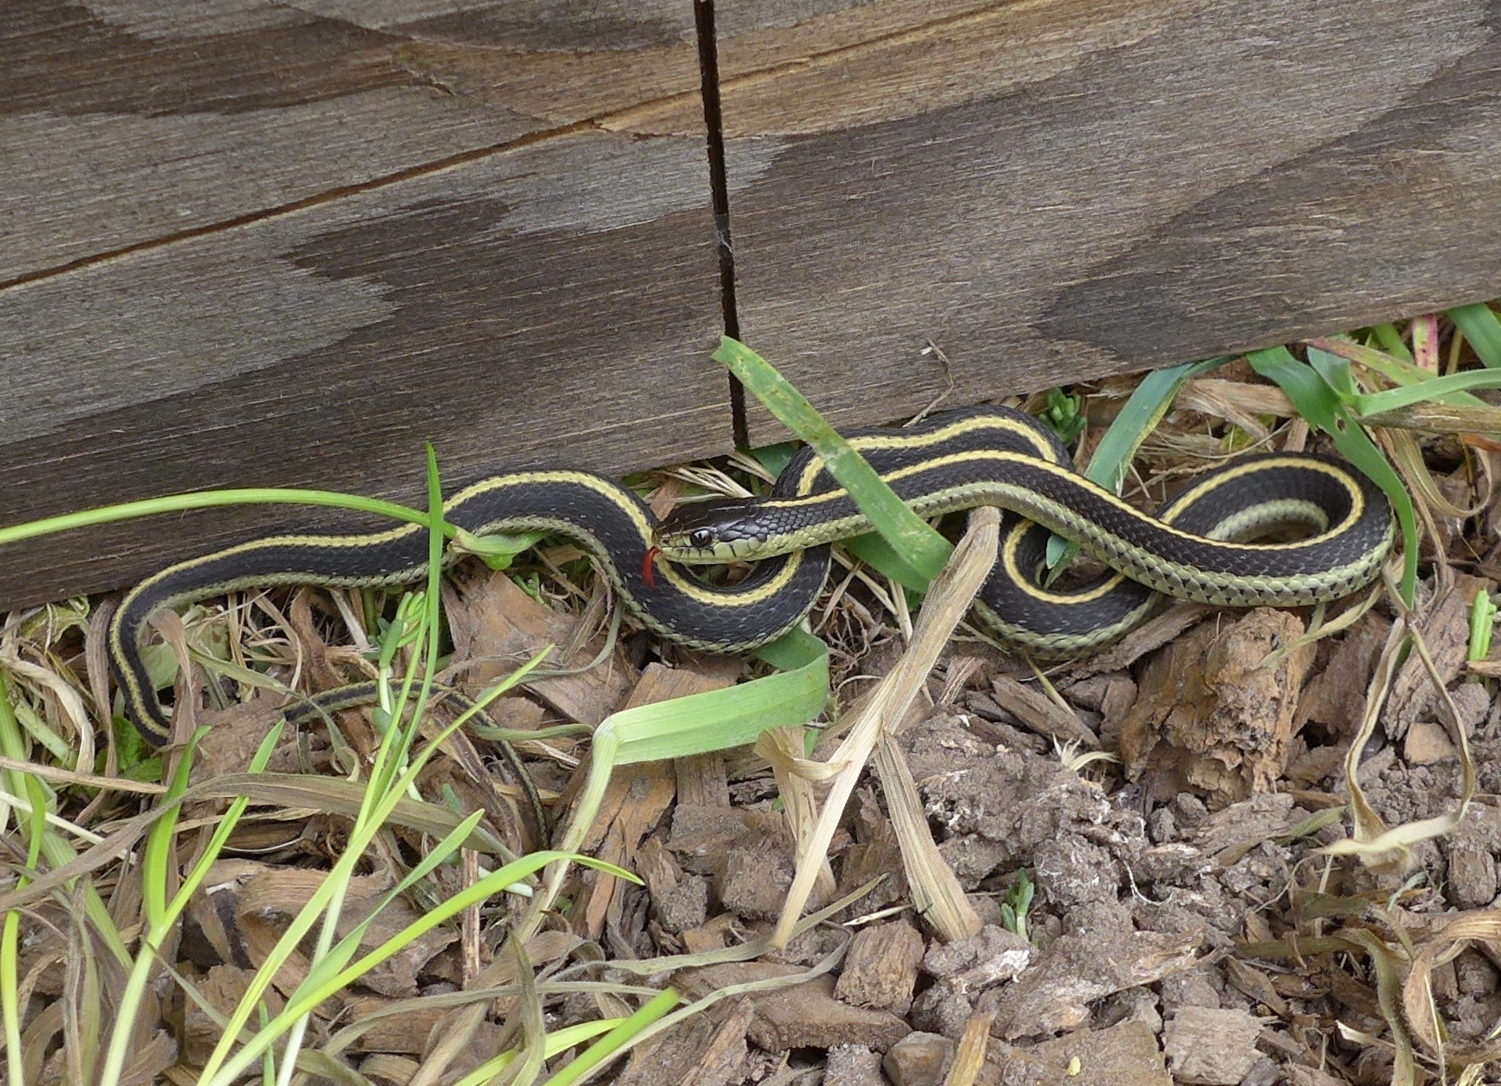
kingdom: Animalia
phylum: Chordata
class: Squamata
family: Colubridae
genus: Thamnophis
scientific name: Thamnophis elegans
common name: Western terrestrial garter snake
